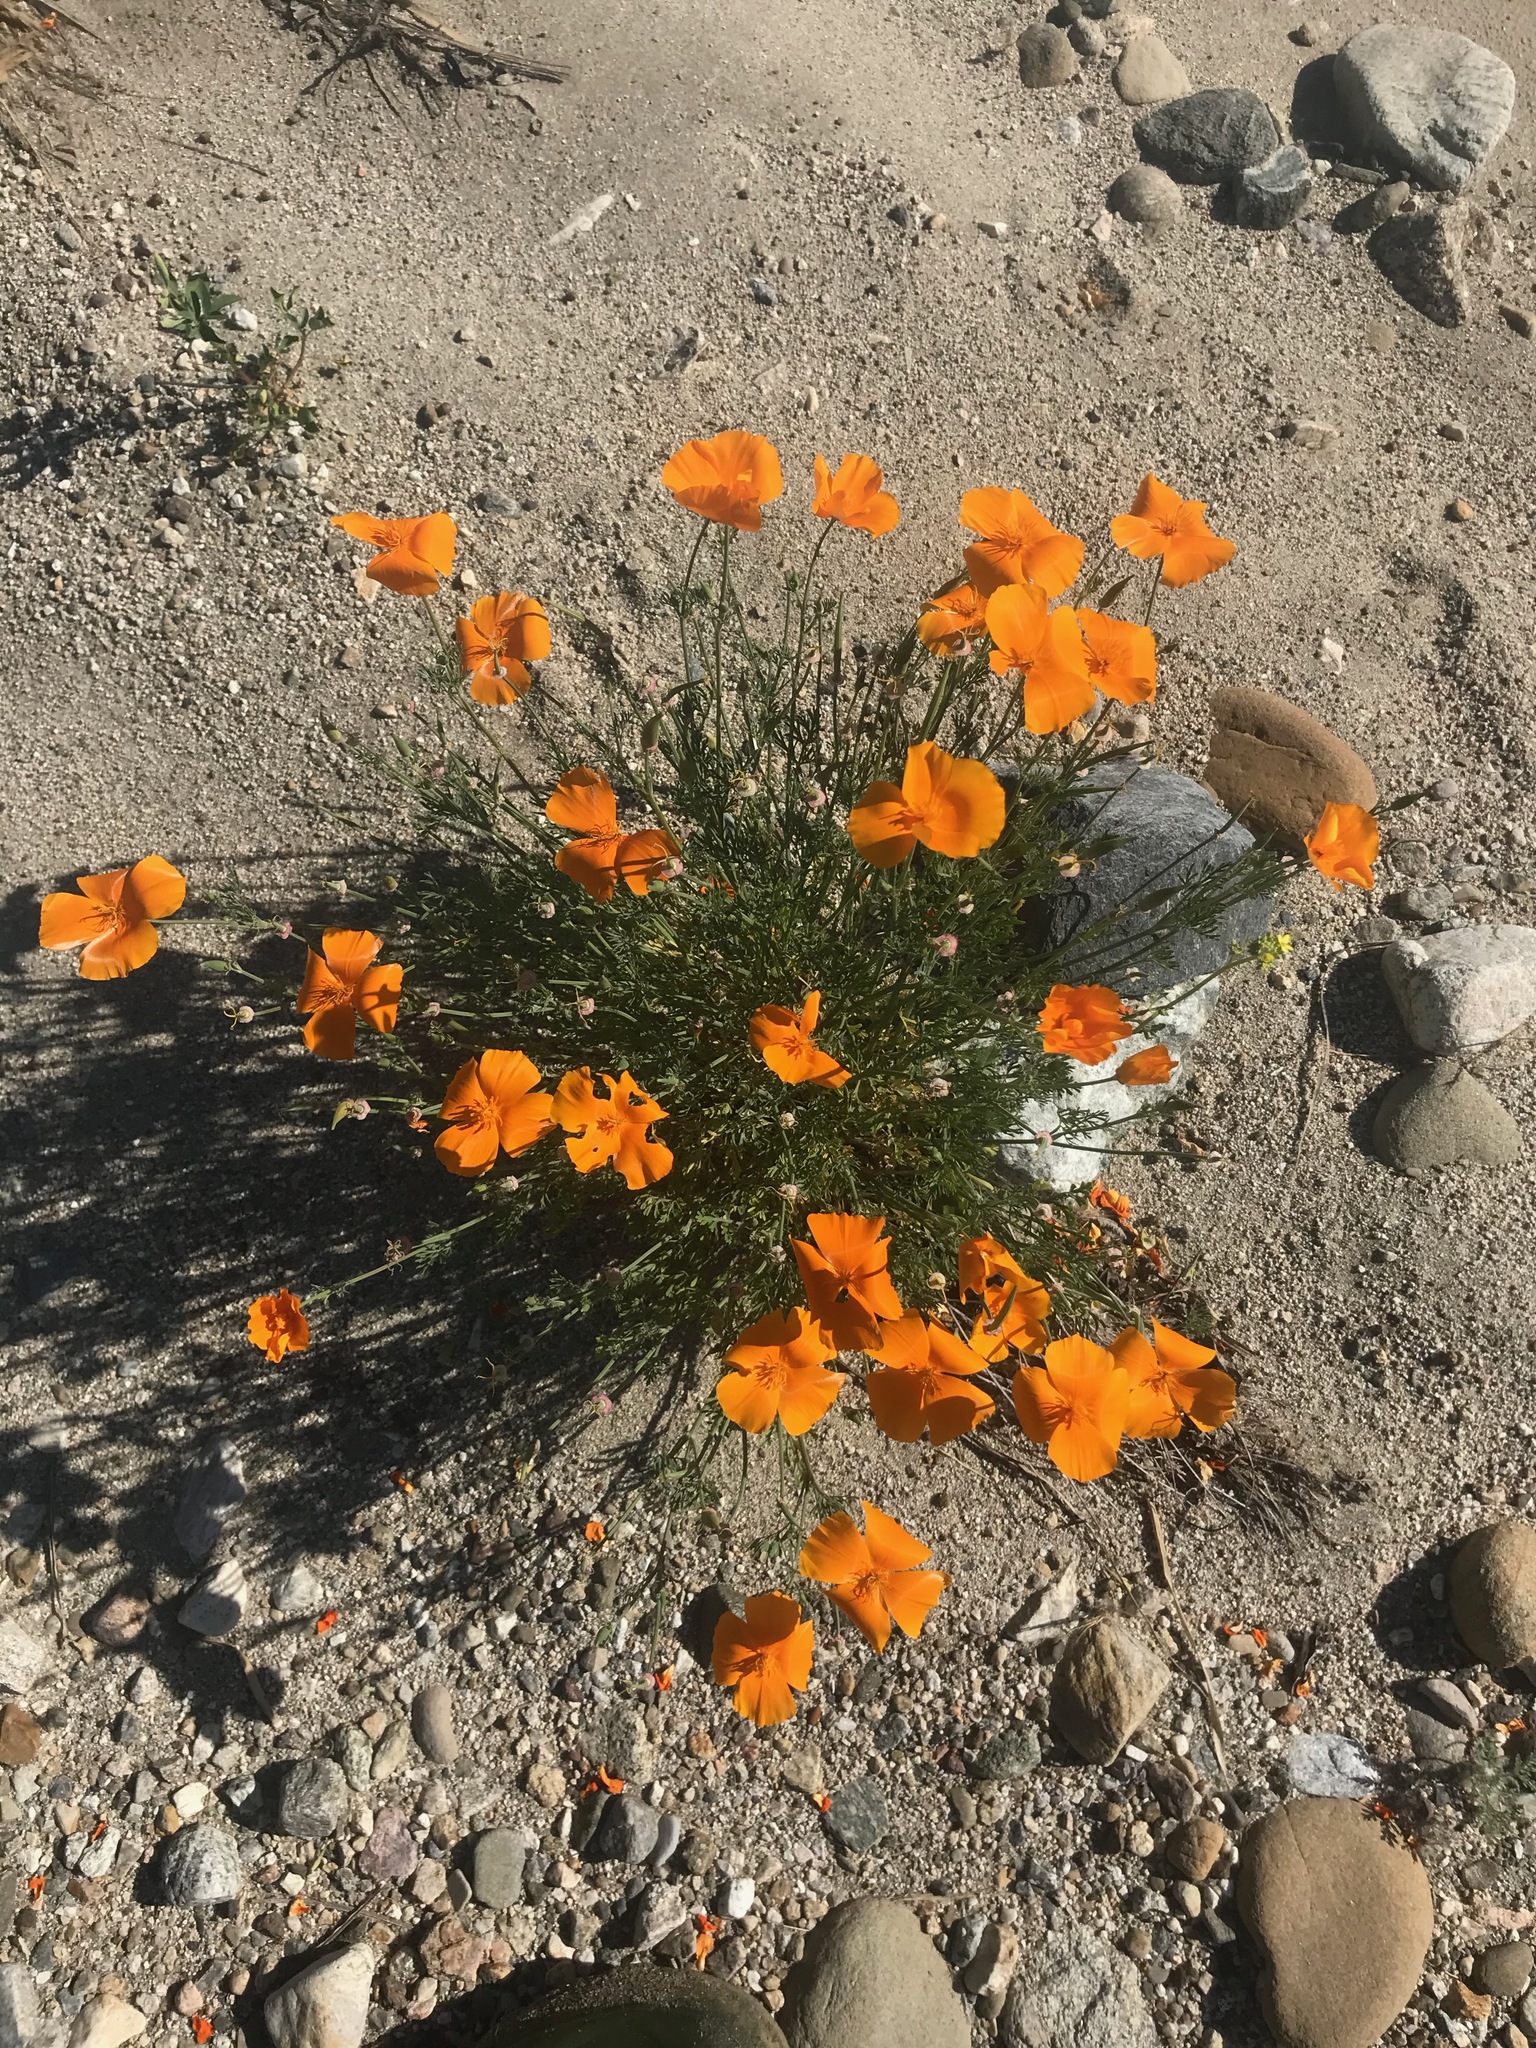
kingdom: Plantae
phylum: Tracheophyta
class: Magnoliopsida
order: Ranunculales
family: Papaveraceae
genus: Eschscholzia
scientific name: Eschscholzia californica
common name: California poppy
